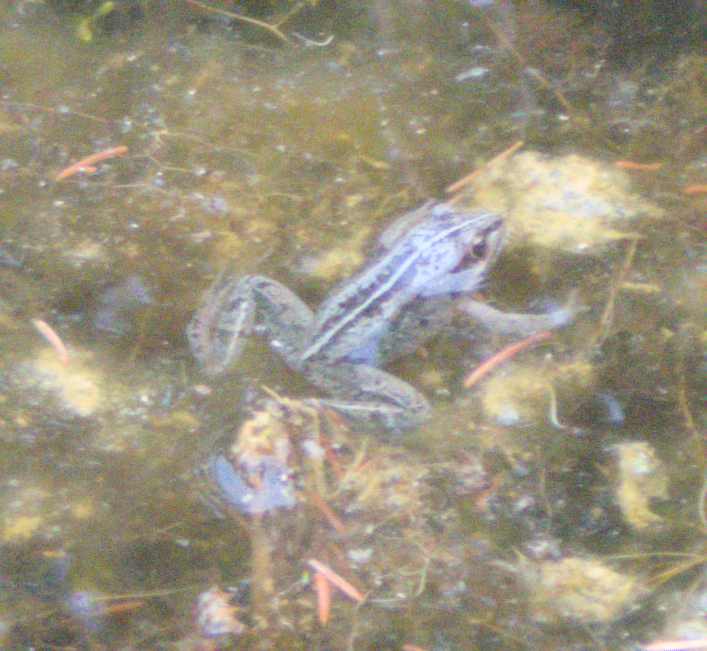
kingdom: Animalia
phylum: Chordata
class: Amphibia
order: Anura
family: Ranidae
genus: Lithobates
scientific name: Lithobates sylvaticus
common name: Wood frog
